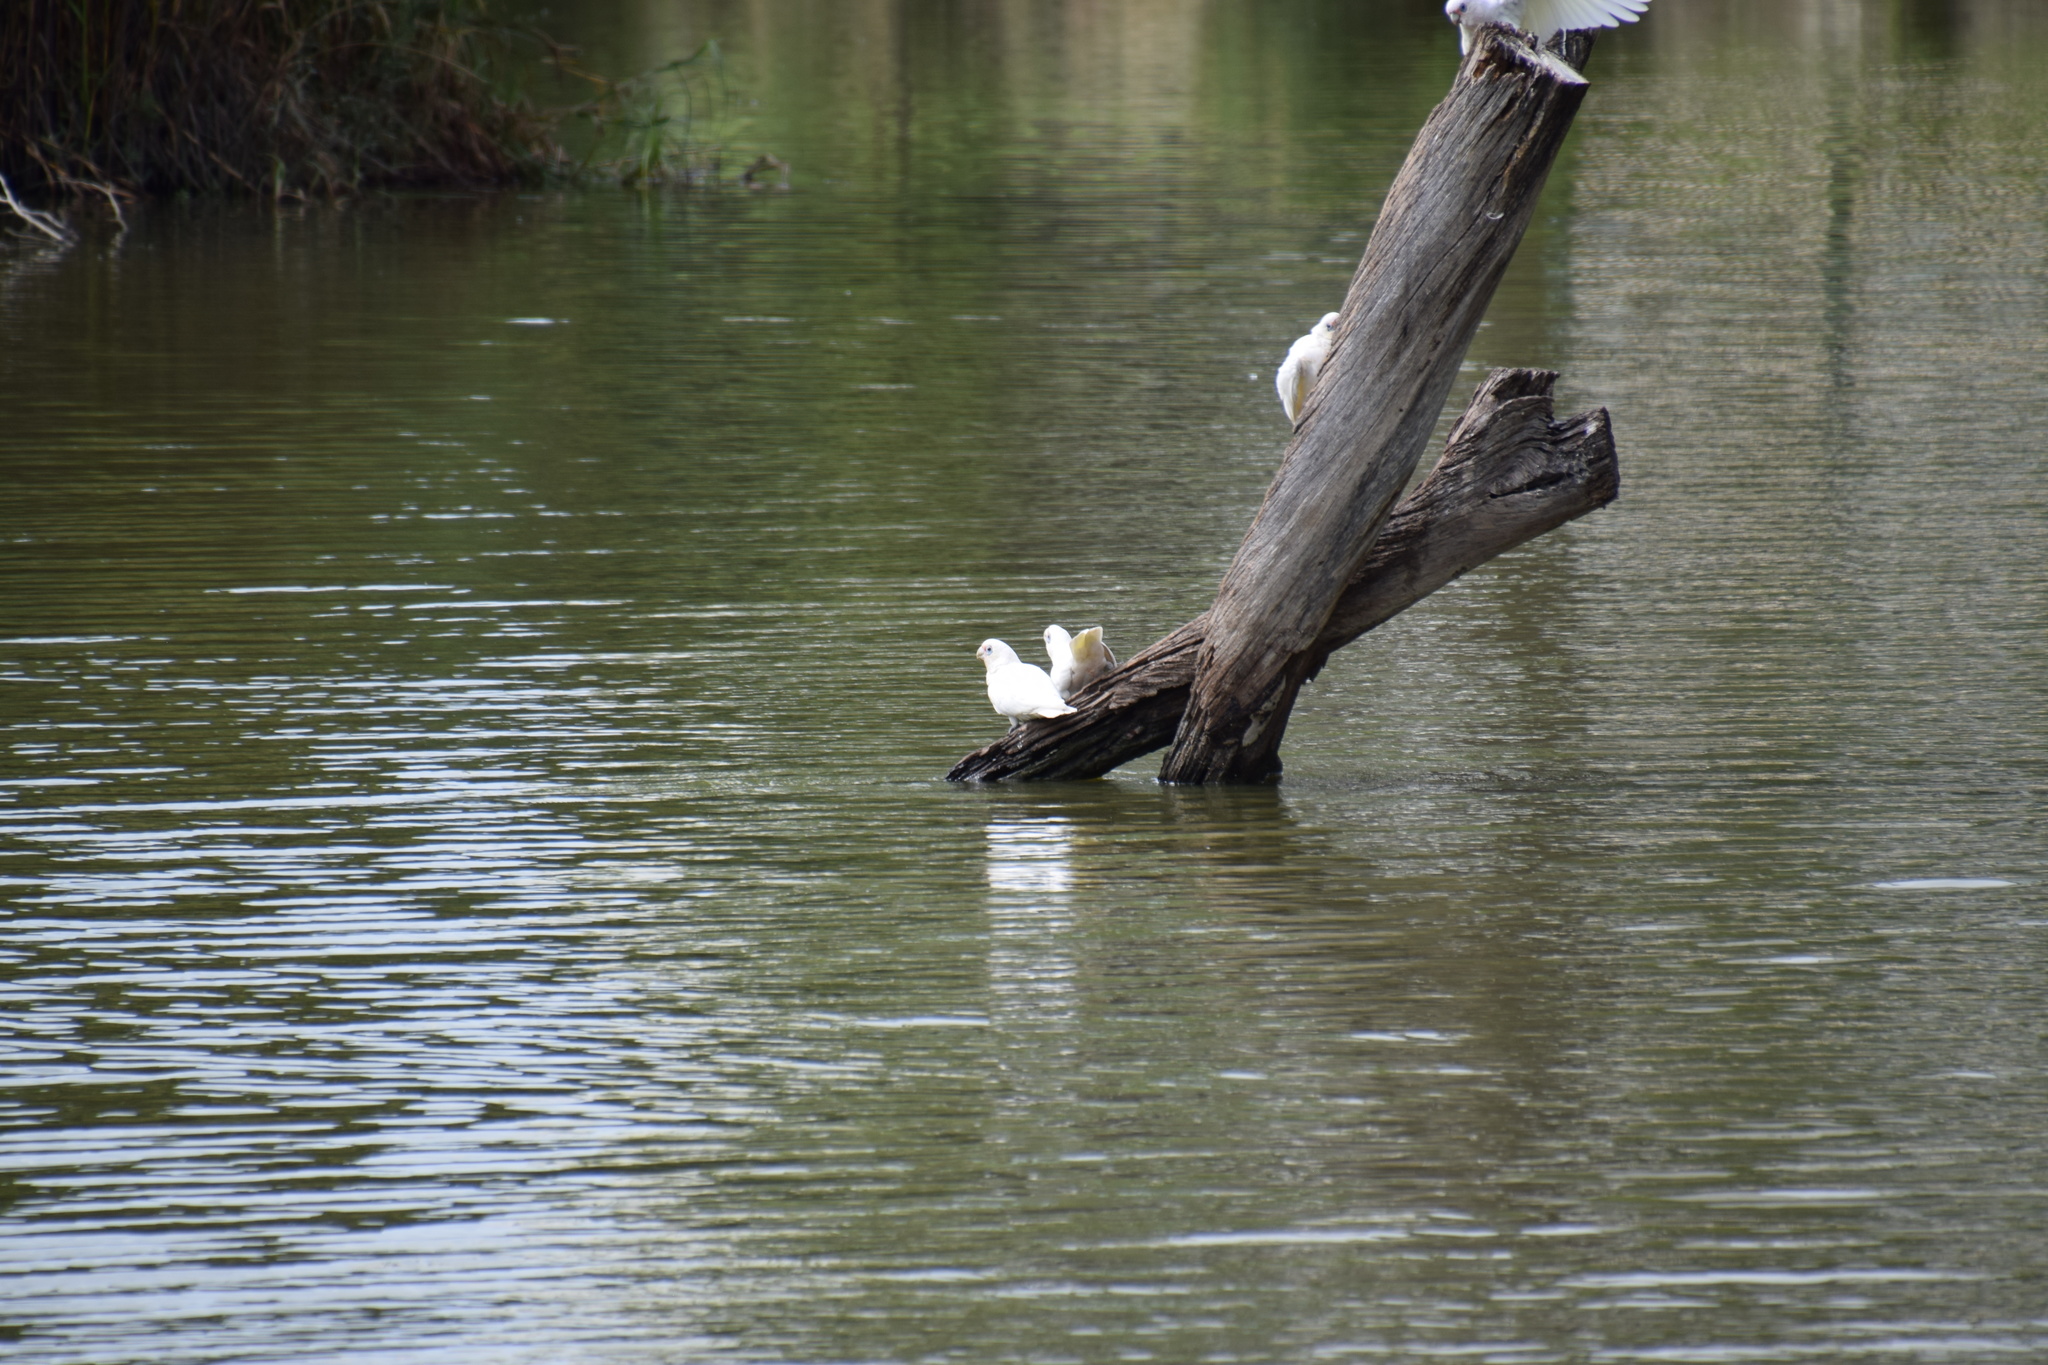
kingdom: Animalia
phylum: Chordata
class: Aves
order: Psittaciformes
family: Psittacidae
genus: Cacatua
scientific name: Cacatua sanguinea
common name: Little corella
